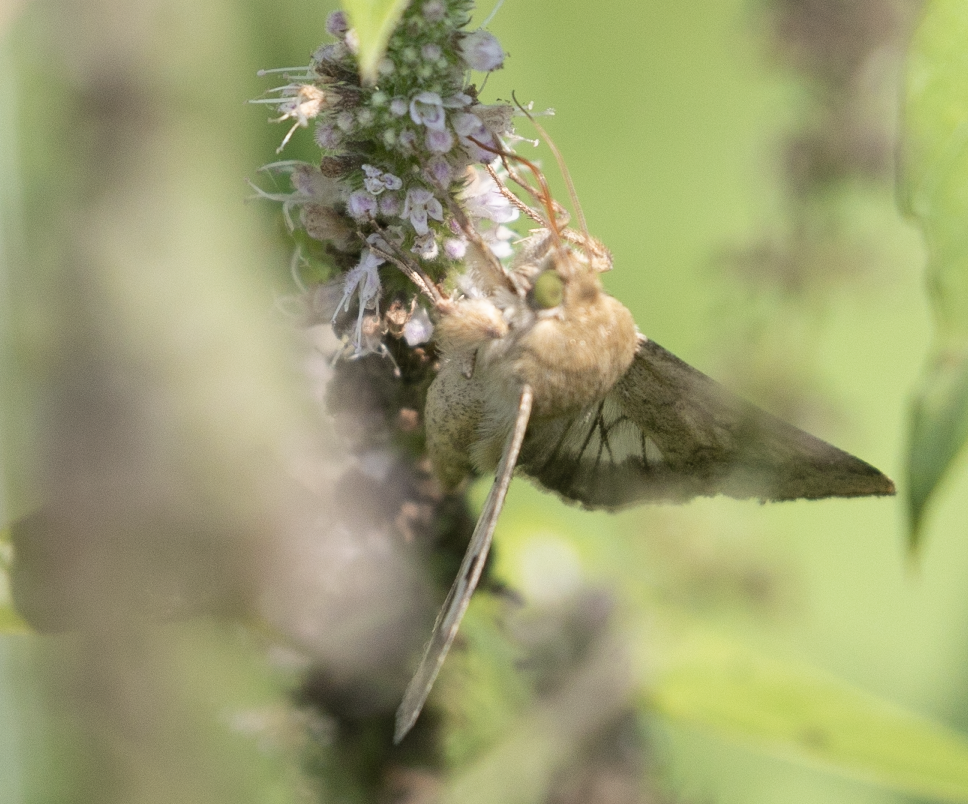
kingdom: Animalia
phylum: Arthropoda
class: Insecta
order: Lepidoptera
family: Noctuidae
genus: Helicoverpa
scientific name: Helicoverpa armigera
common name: Cotton bollworm
